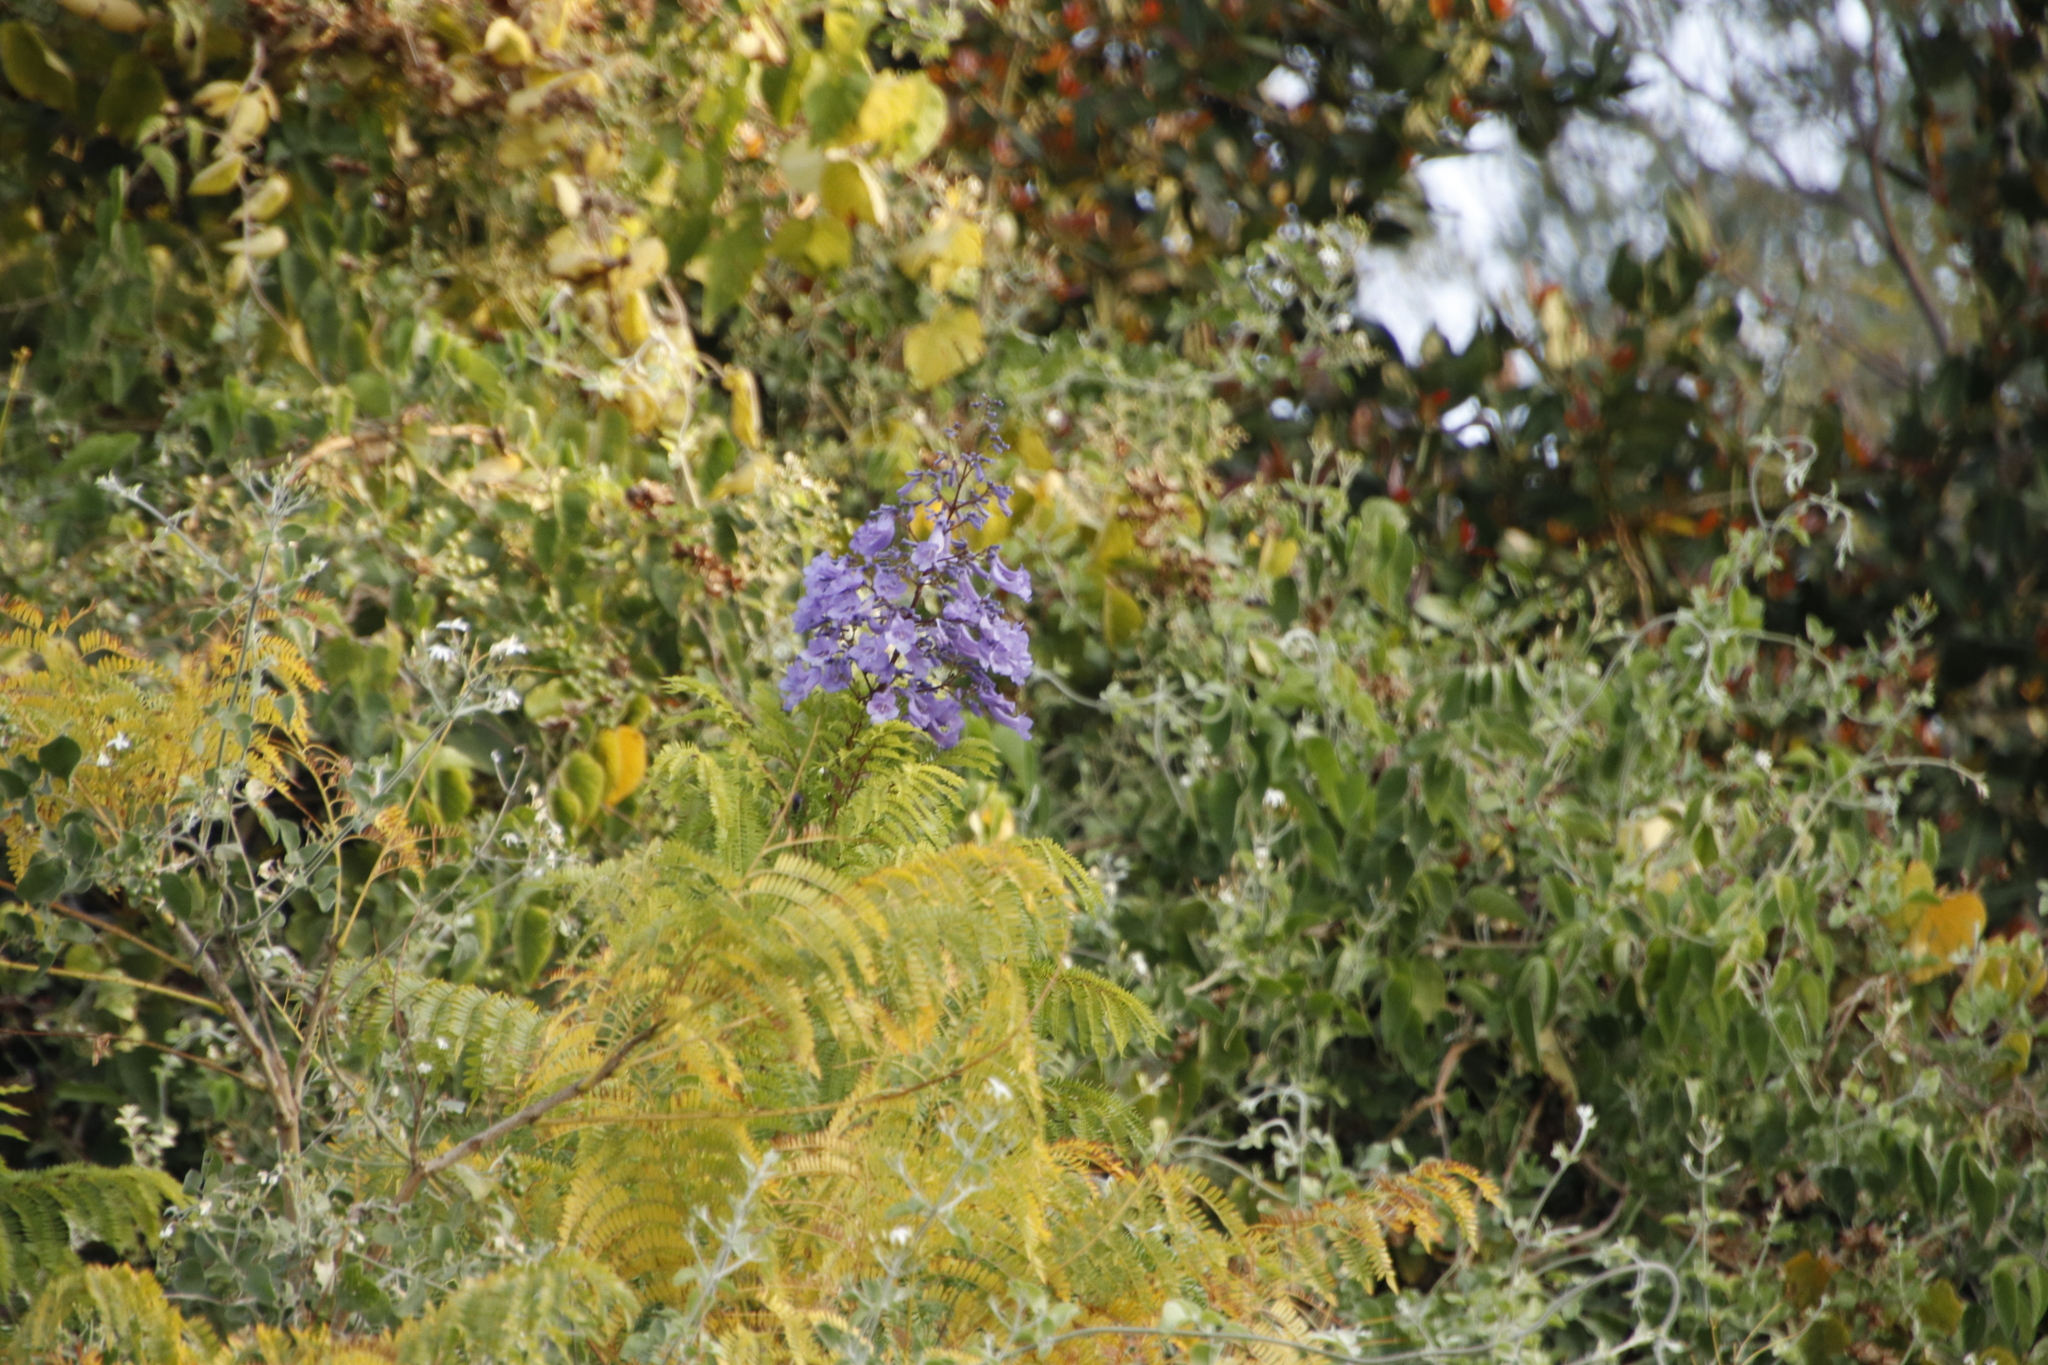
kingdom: Plantae
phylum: Tracheophyta
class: Magnoliopsida
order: Lamiales
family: Bignoniaceae
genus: Jacaranda
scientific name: Jacaranda mimosifolia
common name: Black poui
